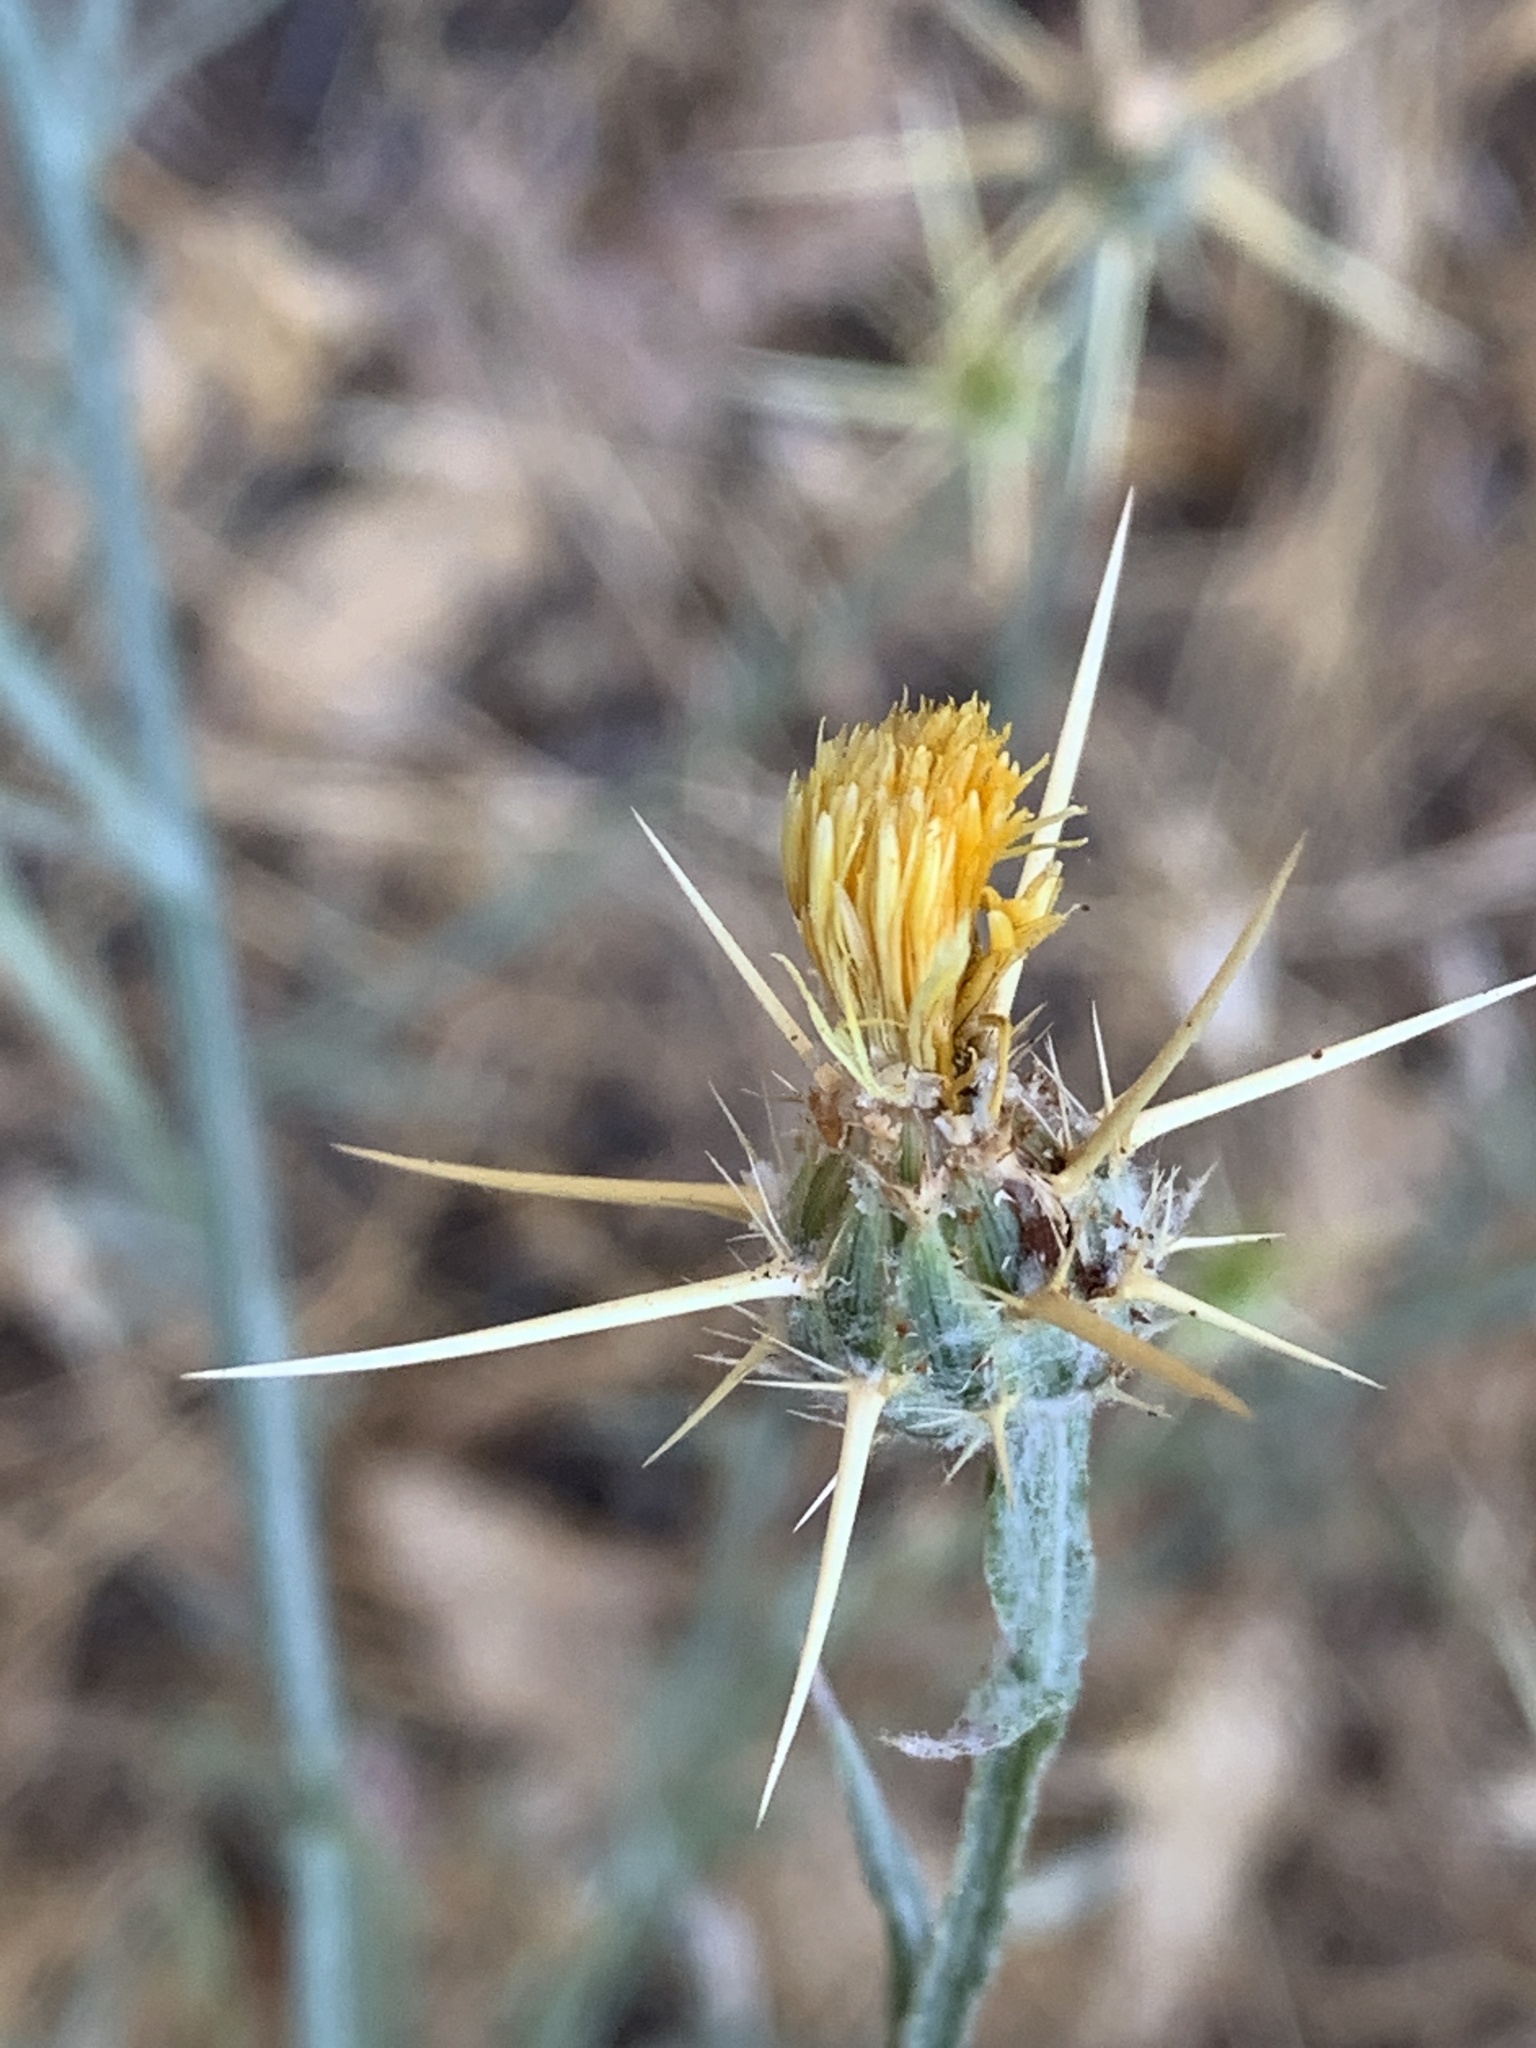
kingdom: Plantae
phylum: Tracheophyta
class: Magnoliopsida
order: Asterales
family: Asteraceae
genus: Centaurea
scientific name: Centaurea solstitialis
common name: Yellow star-thistle
